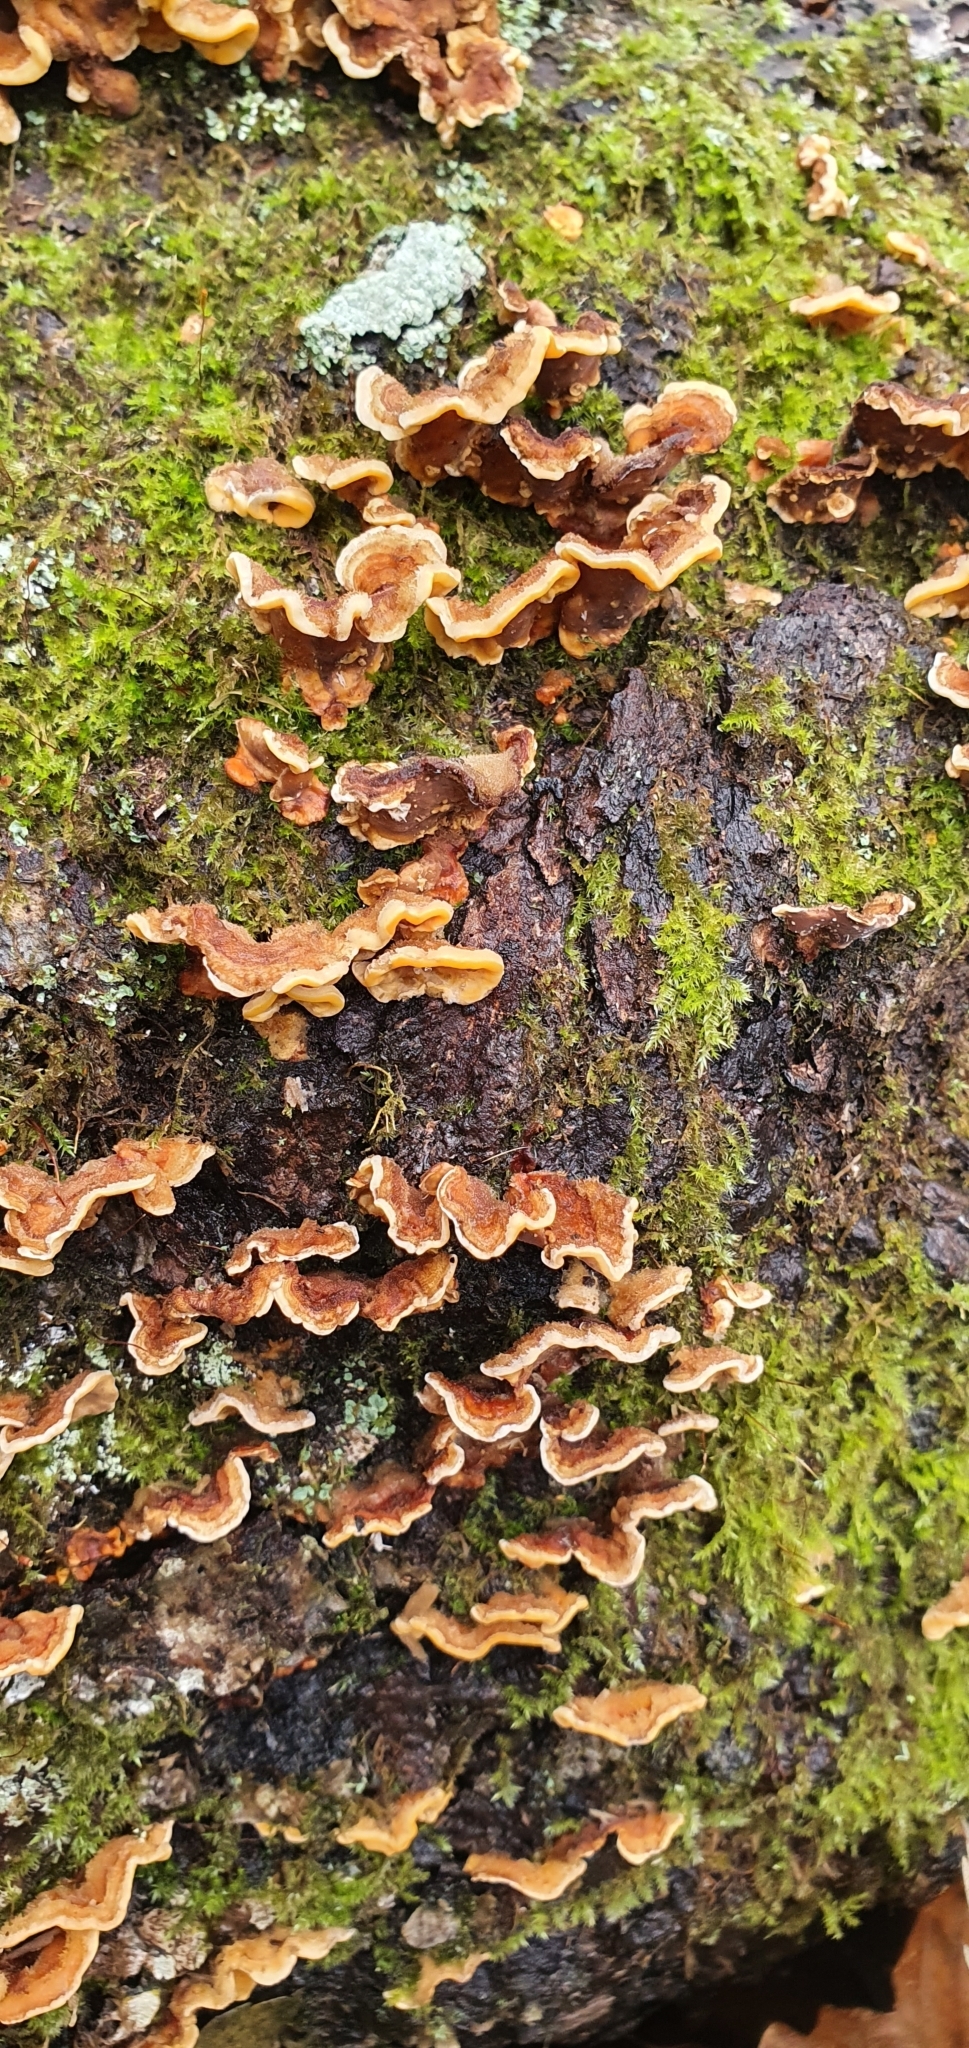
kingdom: Fungi
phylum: Basidiomycota
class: Agaricomycetes
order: Russulales
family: Stereaceae
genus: Stereum
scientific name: Stereum hirsutum
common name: Hairy curtain crust
